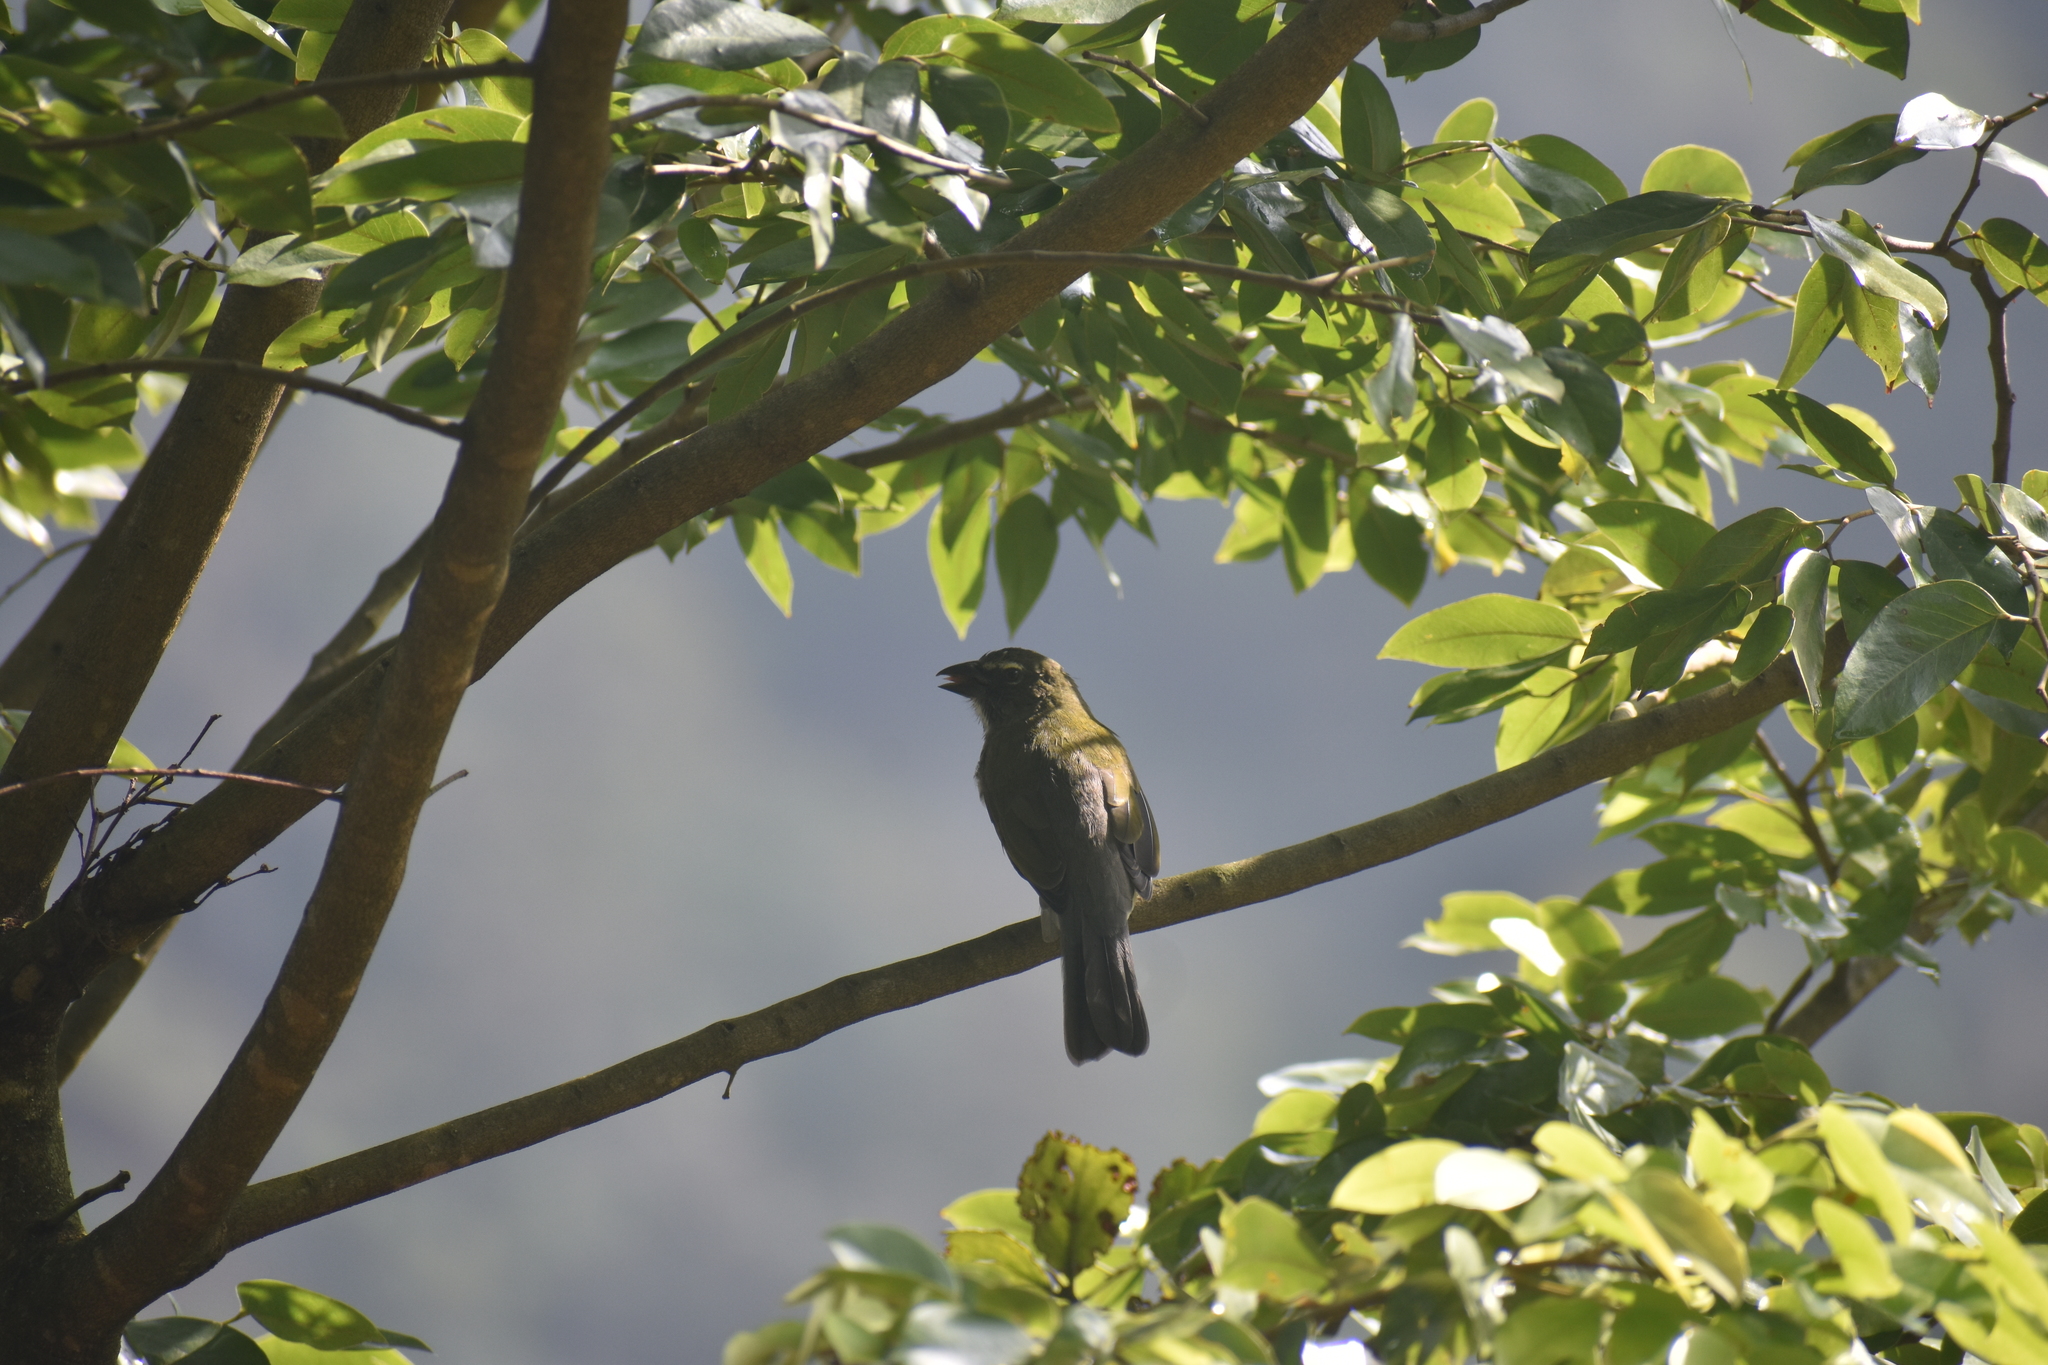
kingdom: Animalia
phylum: Chordata
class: Aves
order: Passeriformes
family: Thraupidae
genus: Saltator
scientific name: Saltator striatipectus
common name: Streaked saltator
